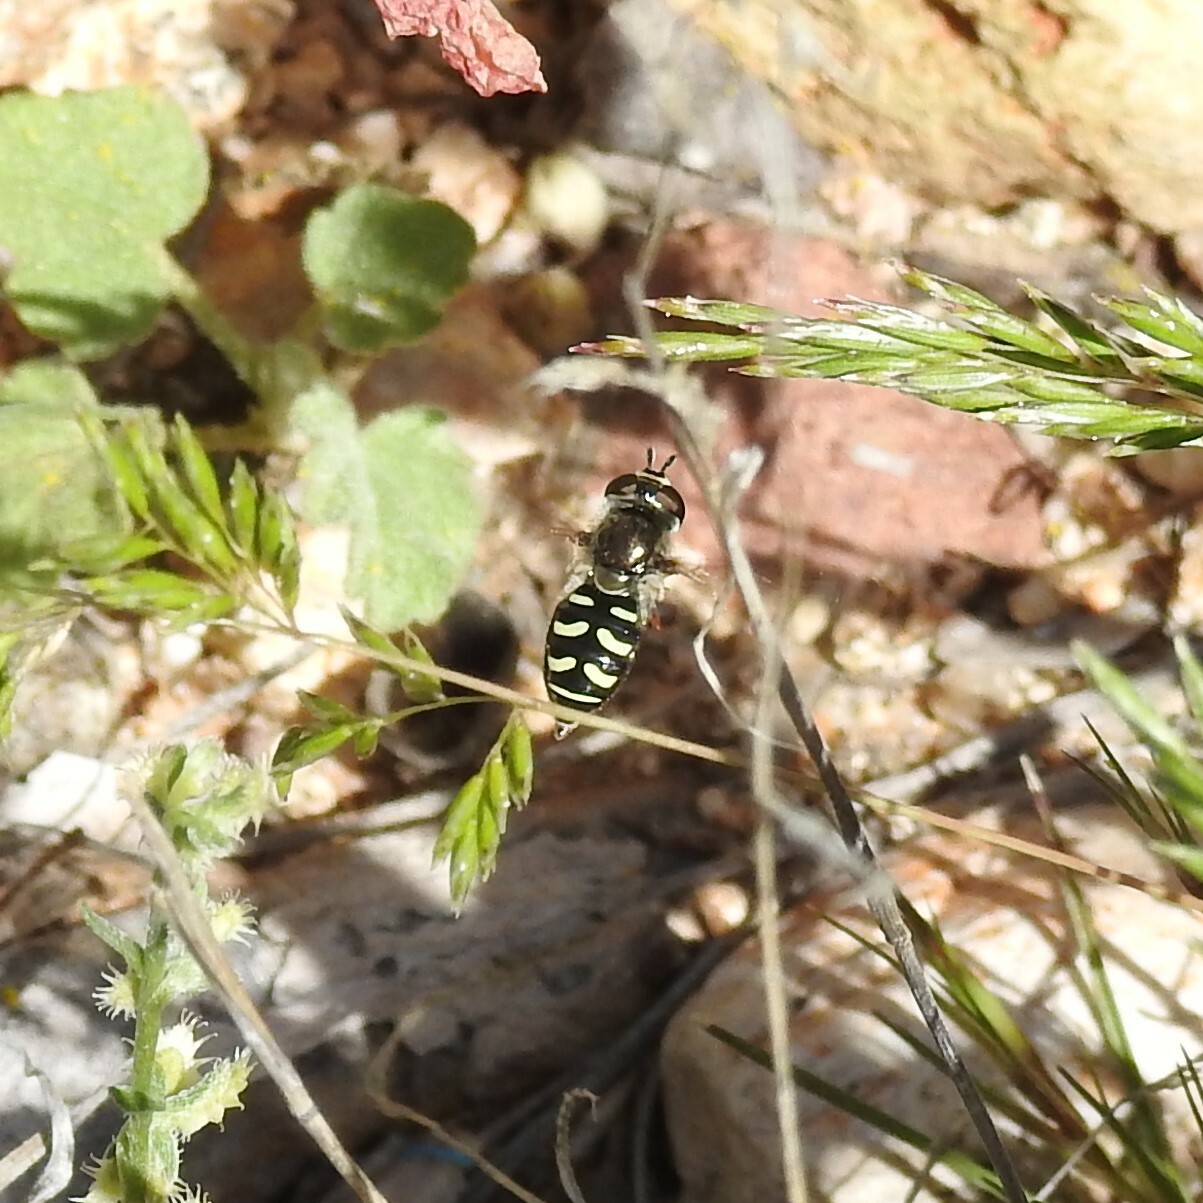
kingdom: Animalia
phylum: Arthropoda
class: Insecta
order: Diptera
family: Syrphidae
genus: Eupeodes
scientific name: Eupeodes volucris
